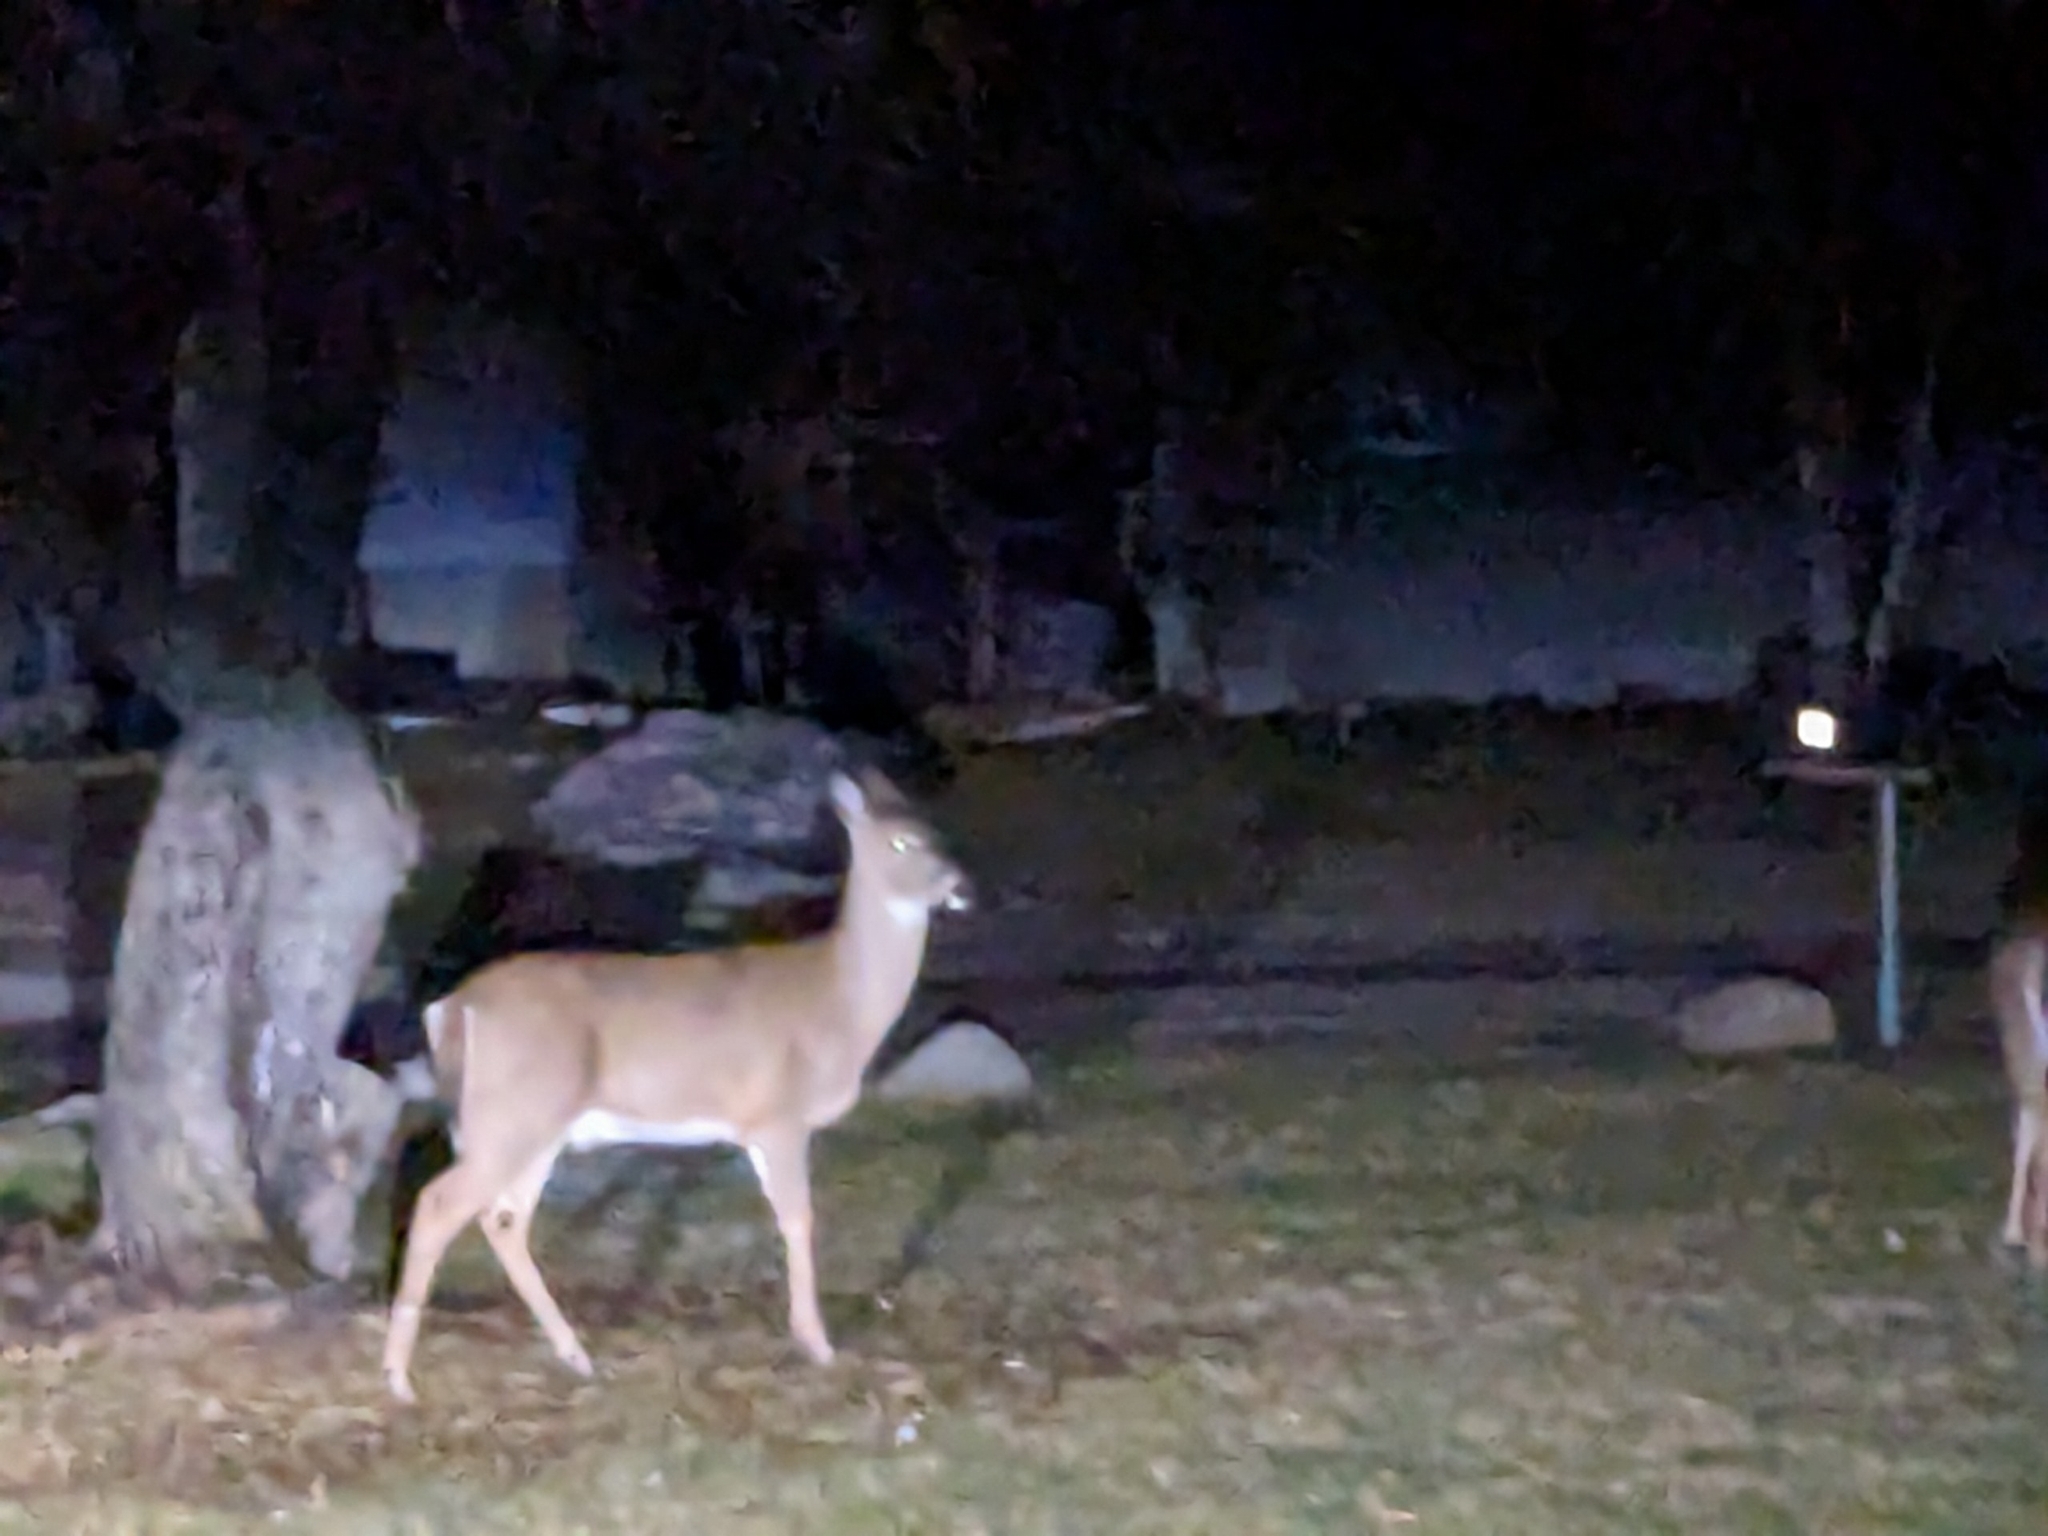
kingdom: Animalia
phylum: Chordata
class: Mammalia
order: Artiodactyla
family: Cervidae
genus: Odocoileus
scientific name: Odocoileus virginianus
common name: White-tailed deer
